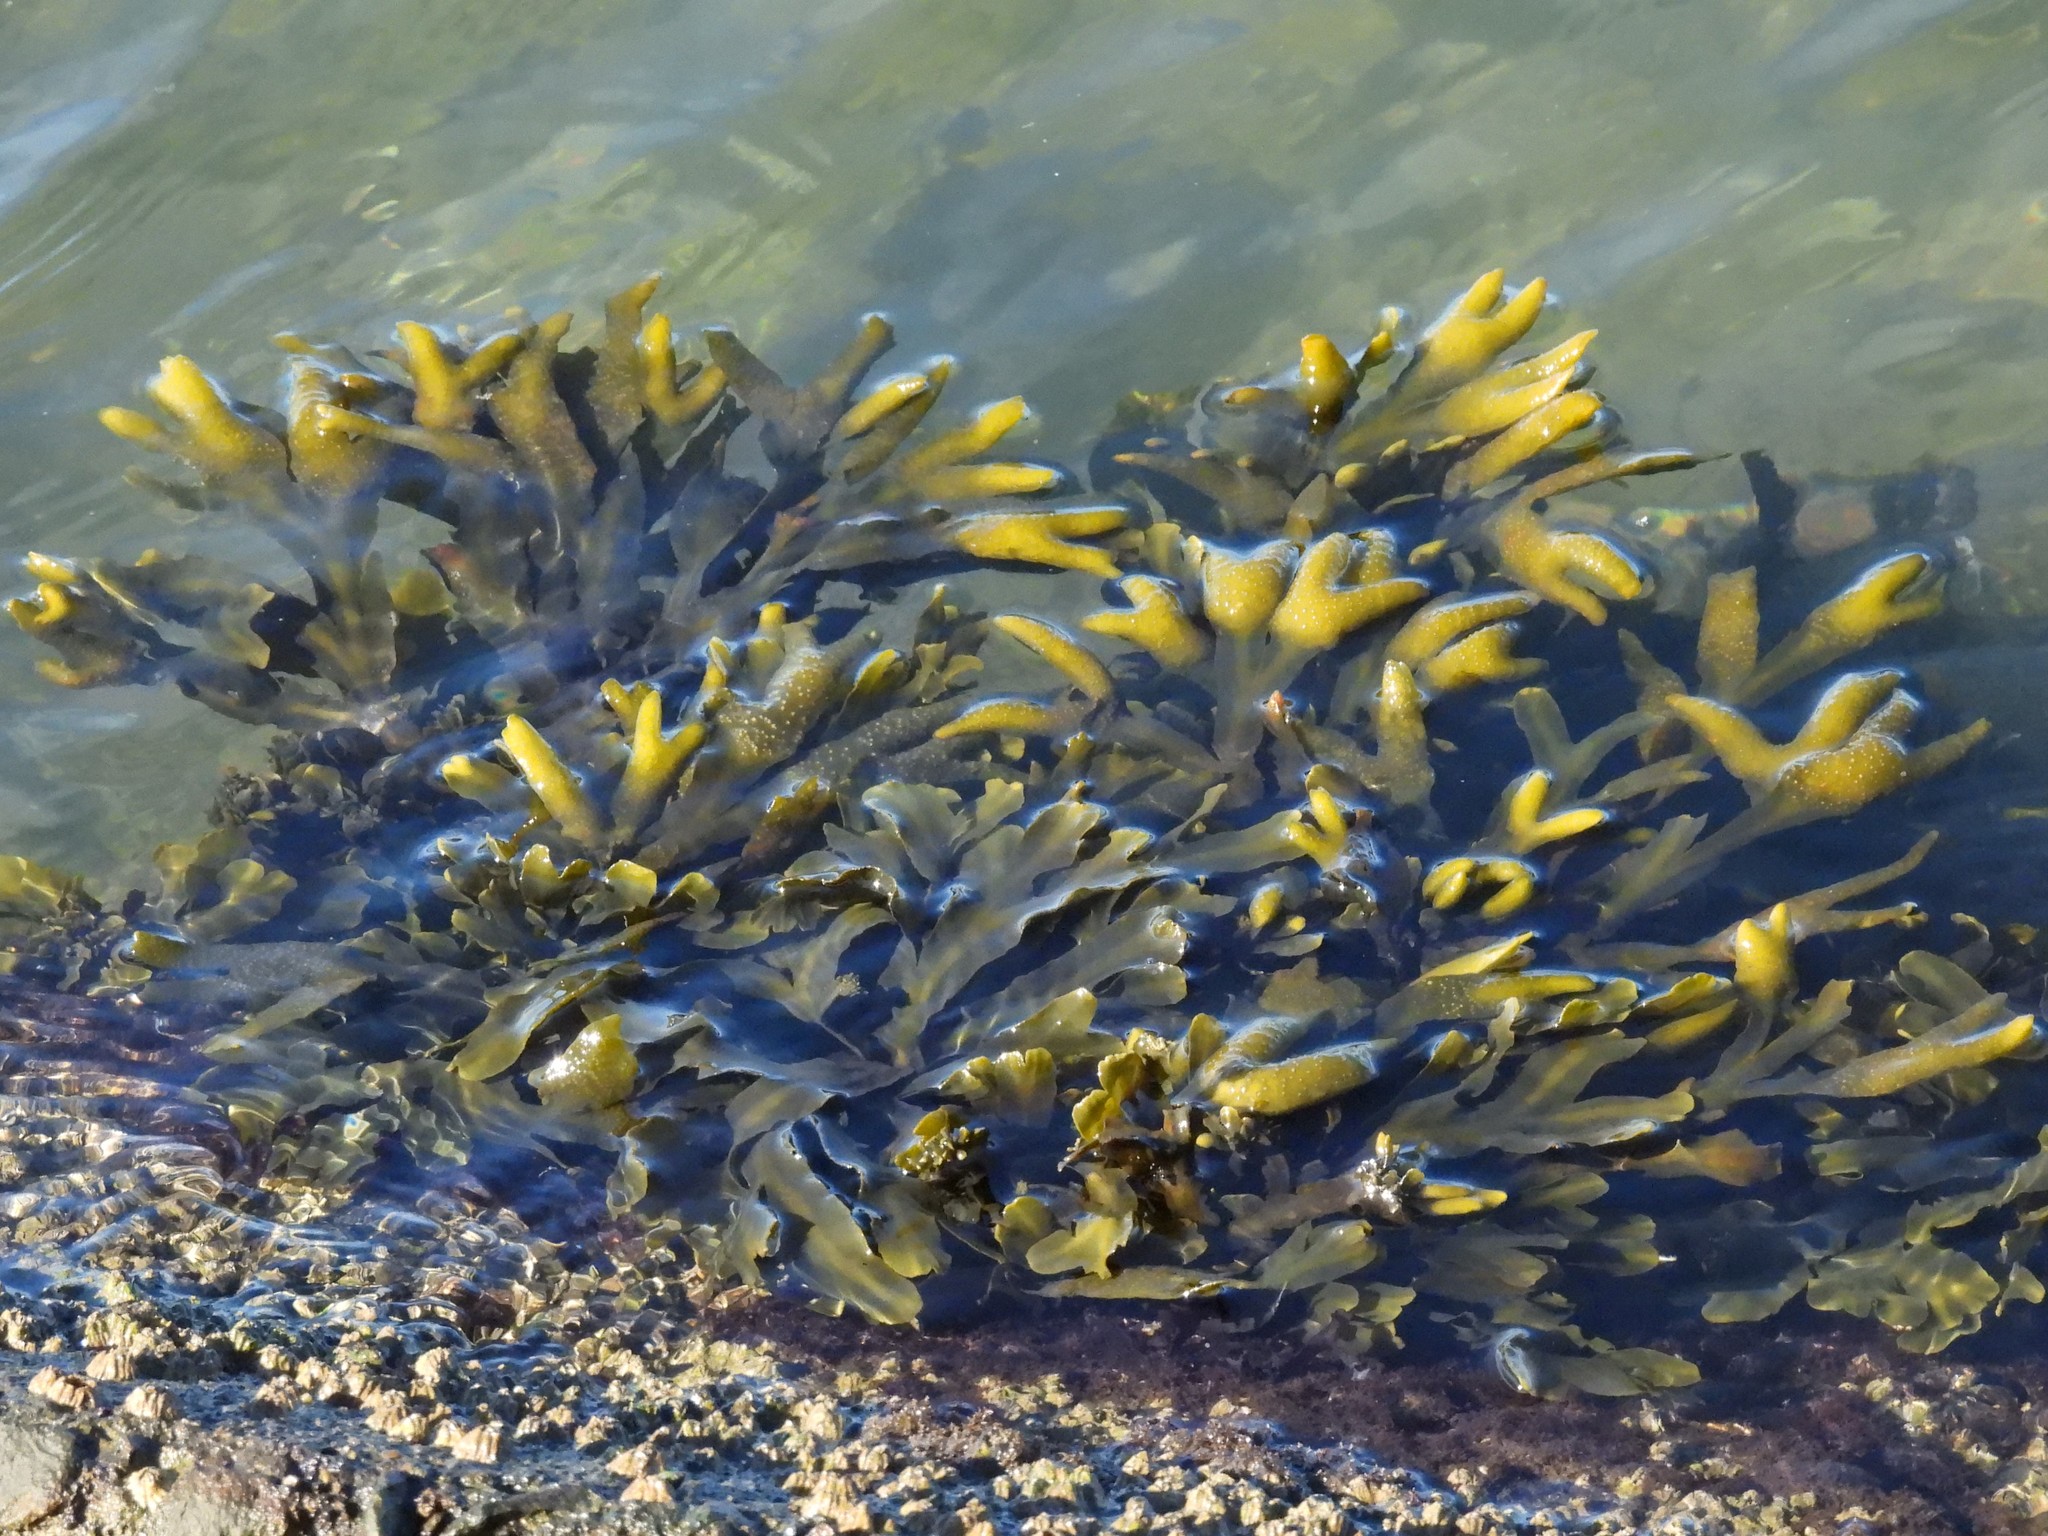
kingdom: Chromista
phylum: Ochrophyta
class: Phaeophyceae
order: Fucales
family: Fucaceae
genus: Fucus
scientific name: Fucus distichus
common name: Rockweed
